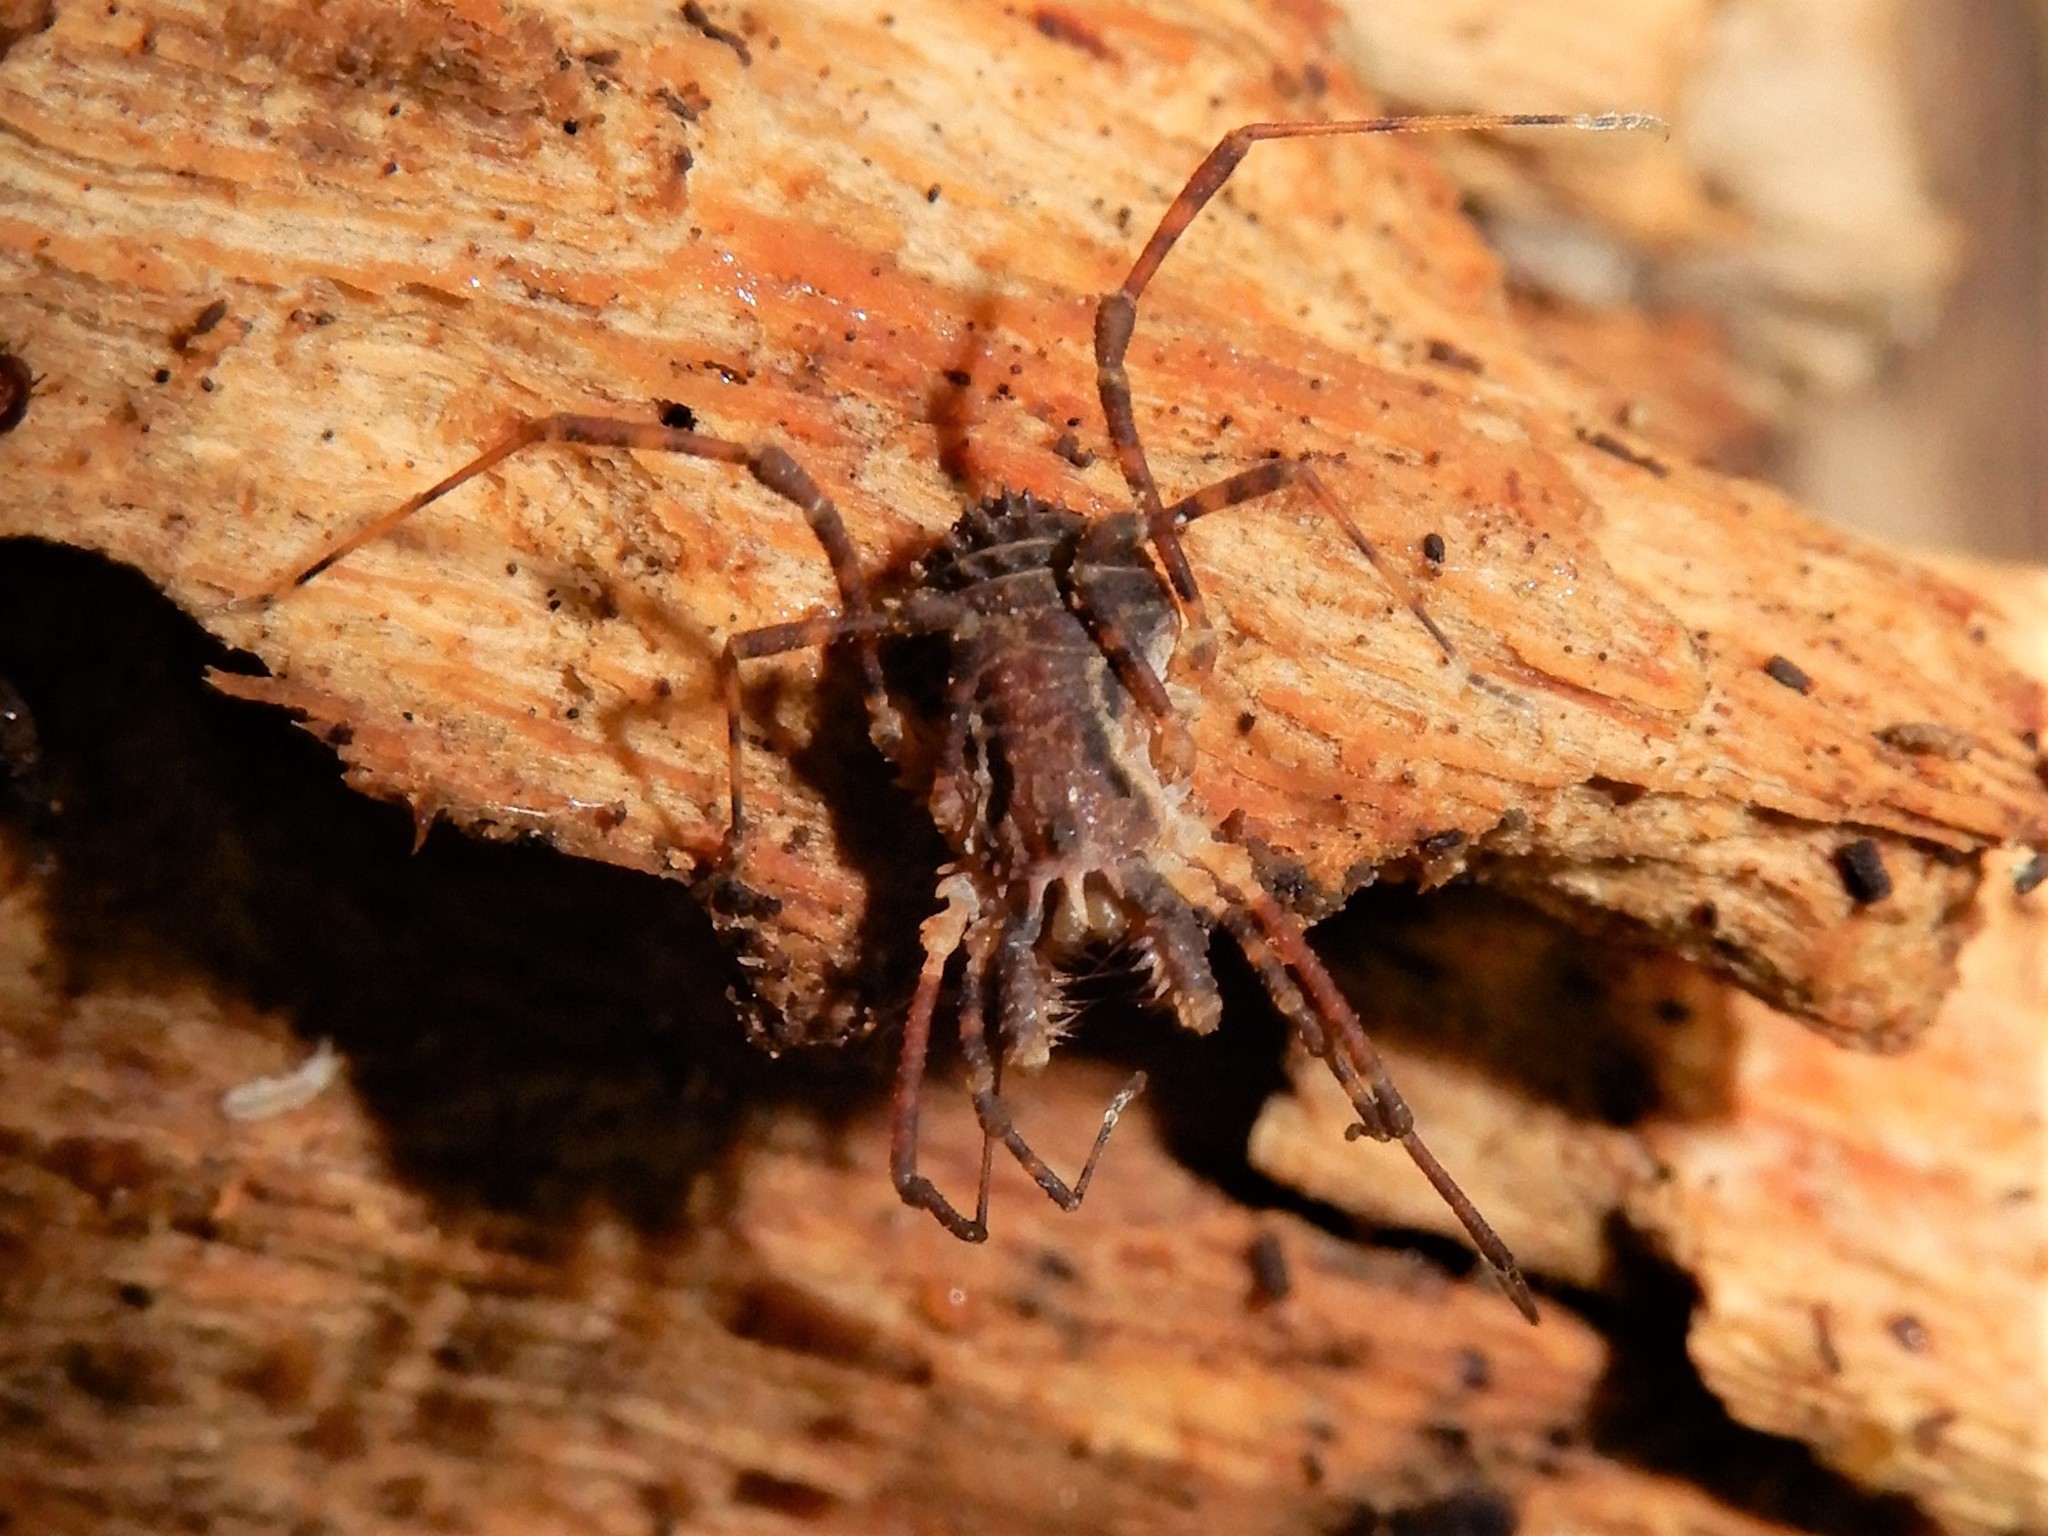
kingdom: Animalia
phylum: Arthropoda
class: Arachnida
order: Opiliones
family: Triaenonychidae
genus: Algidia
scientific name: Algidia chiltoni
